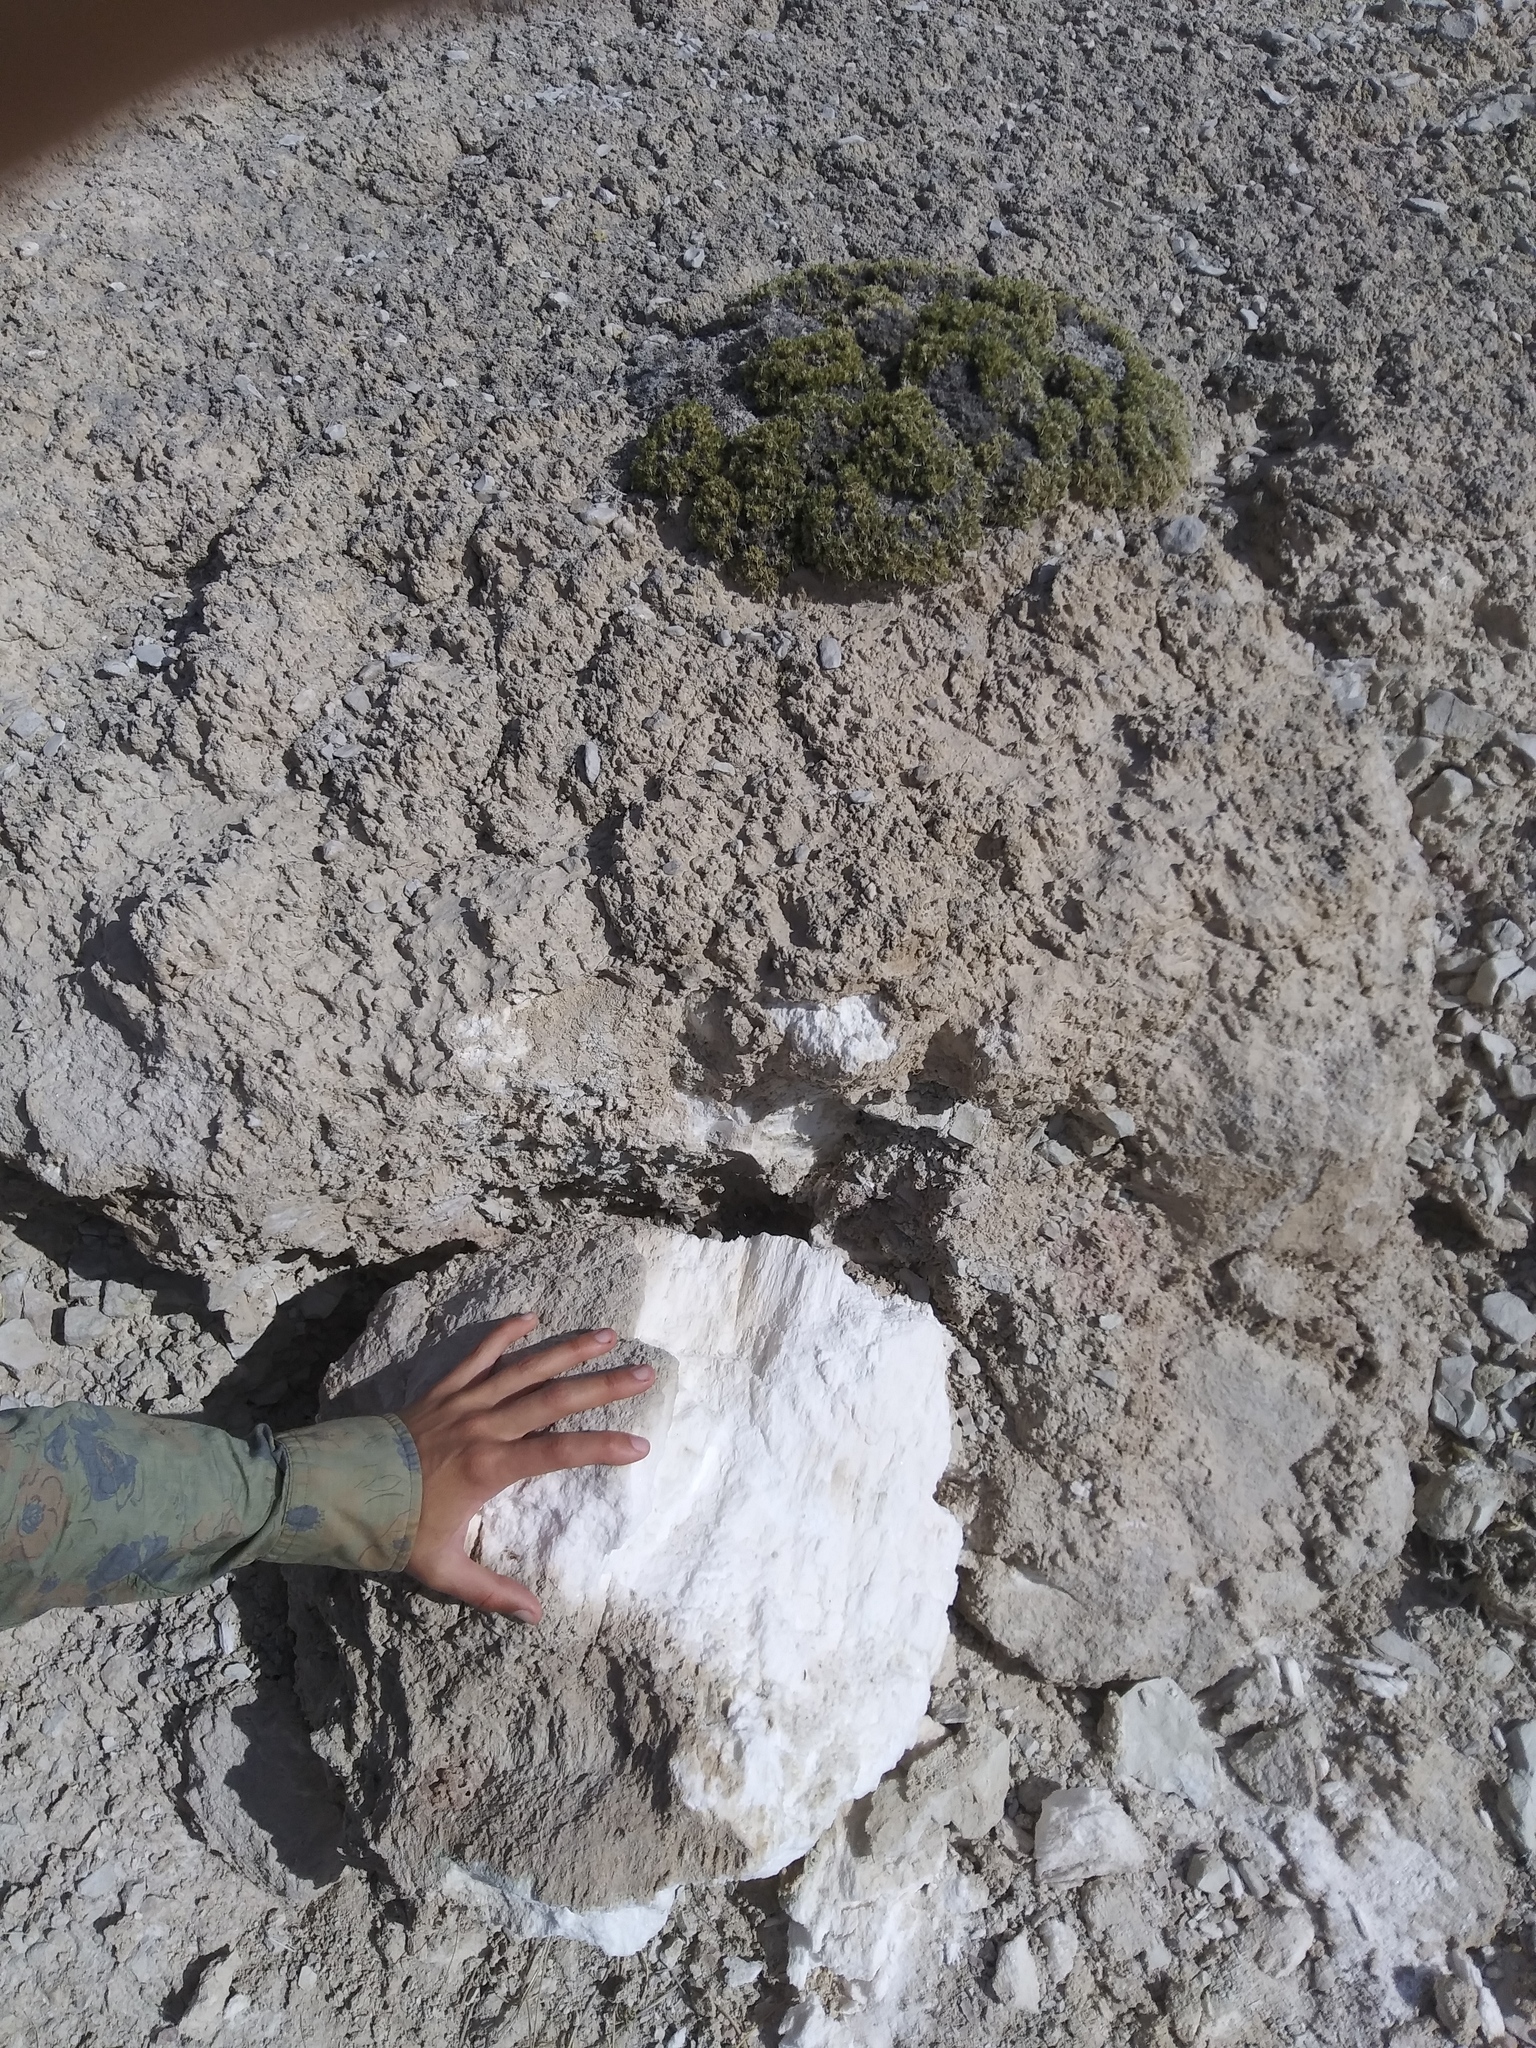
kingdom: Plantae
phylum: Tracheophyta
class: Magnoliopsida
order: Ericales
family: Polemoniaceae
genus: Linanthus
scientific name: Linanthus caespitosus
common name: Mat prickly phlox
